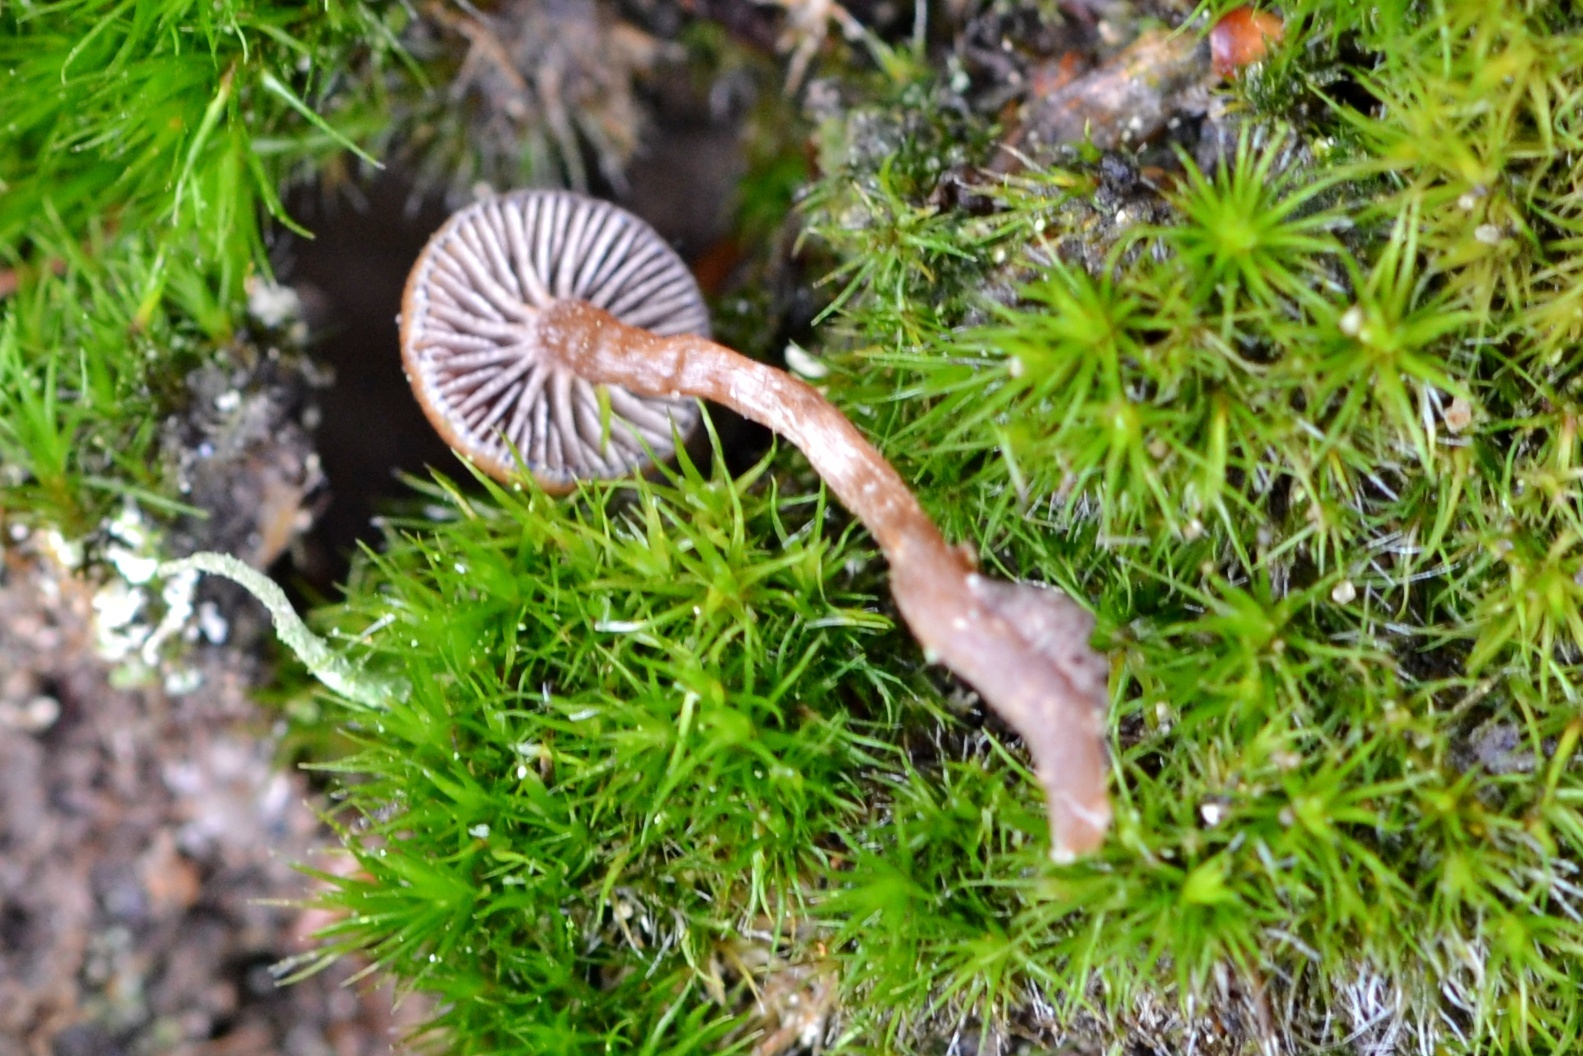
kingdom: Fungi
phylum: Basidiomycota
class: Agaricomycetes
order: Agaricales
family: Strophariaceae
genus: Deconica
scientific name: Deconica montana
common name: Mountain moss deconica
